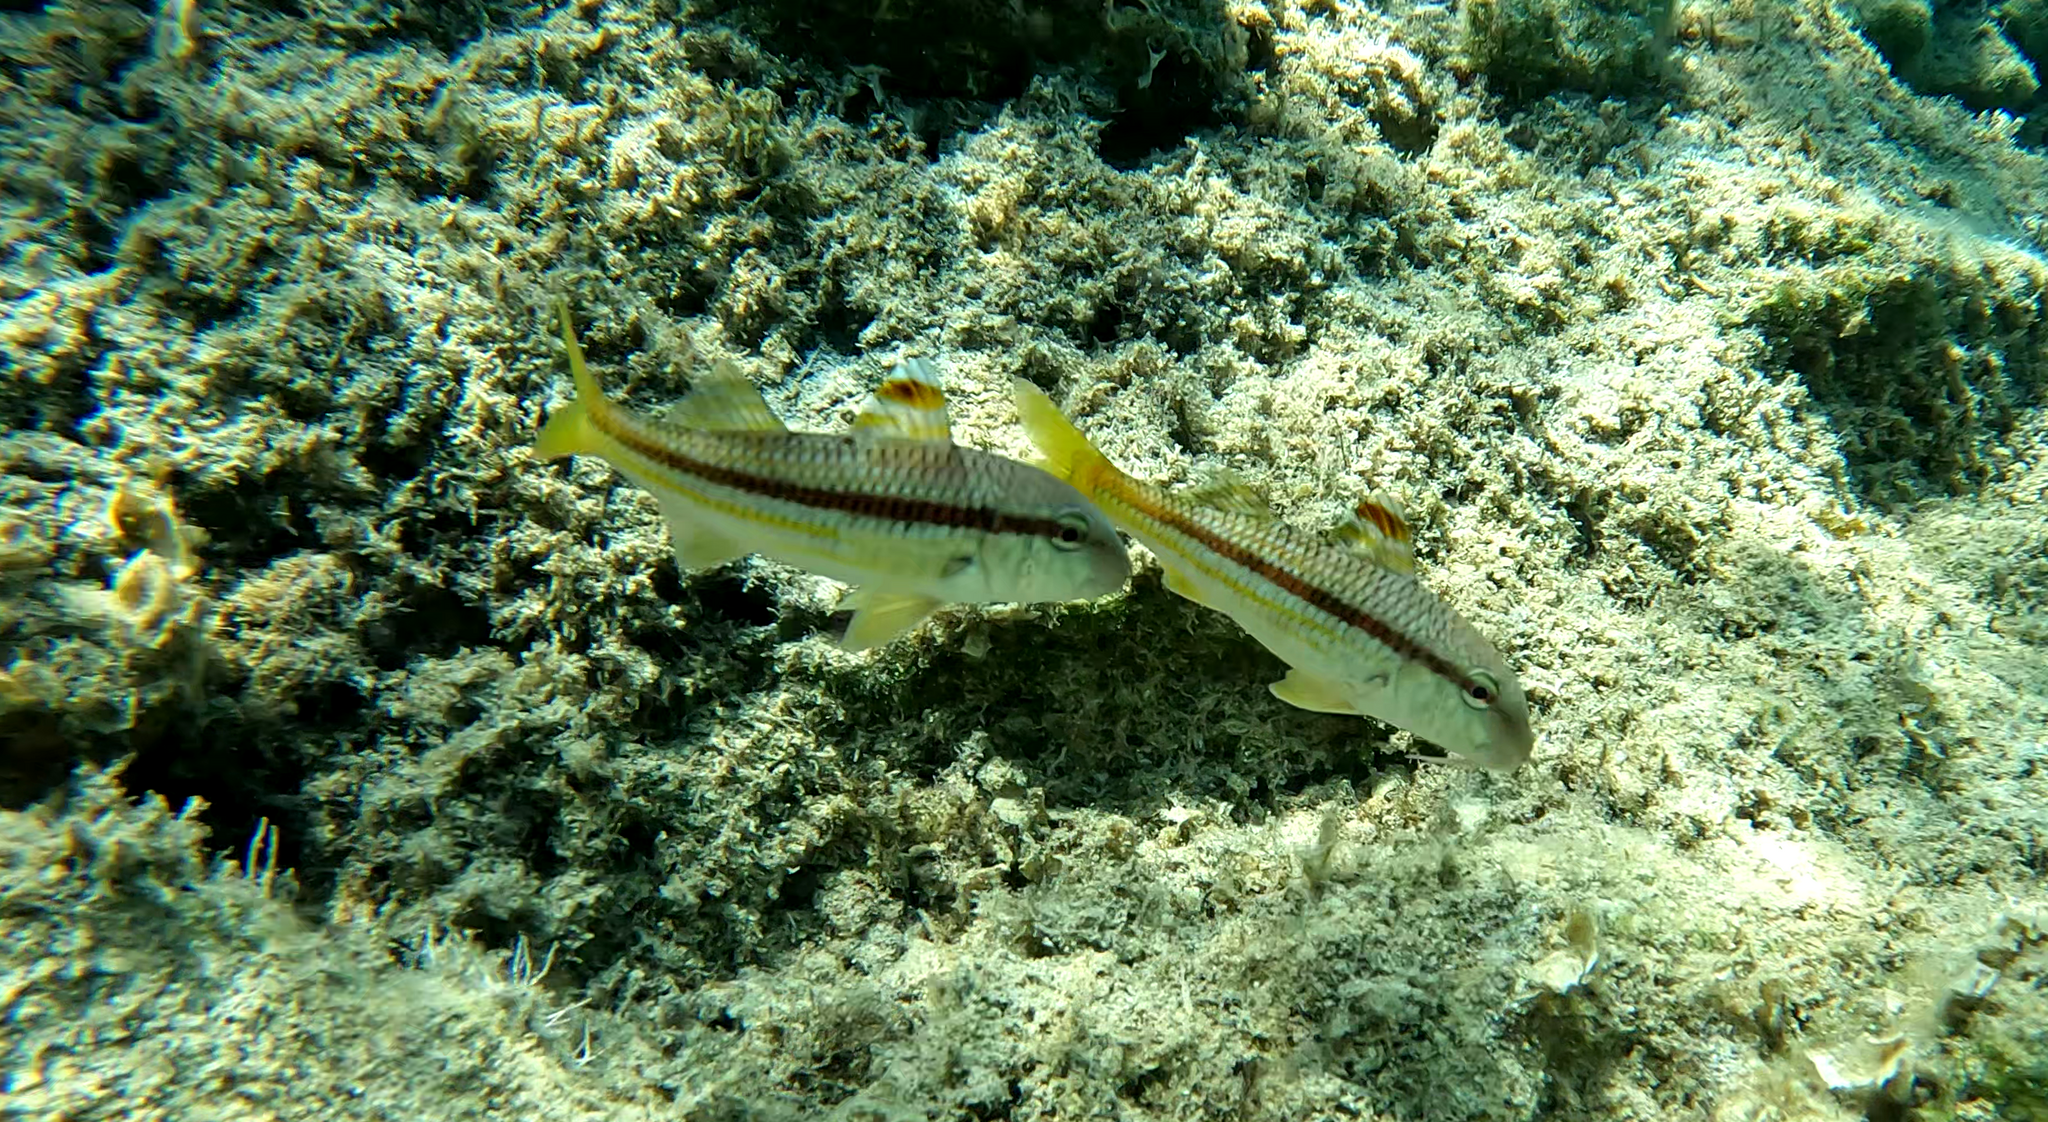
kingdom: Animalia
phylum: Chordata
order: Perciformes
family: Mullidae
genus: Mullus
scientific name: Mullus surmuletus
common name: Red mullet
